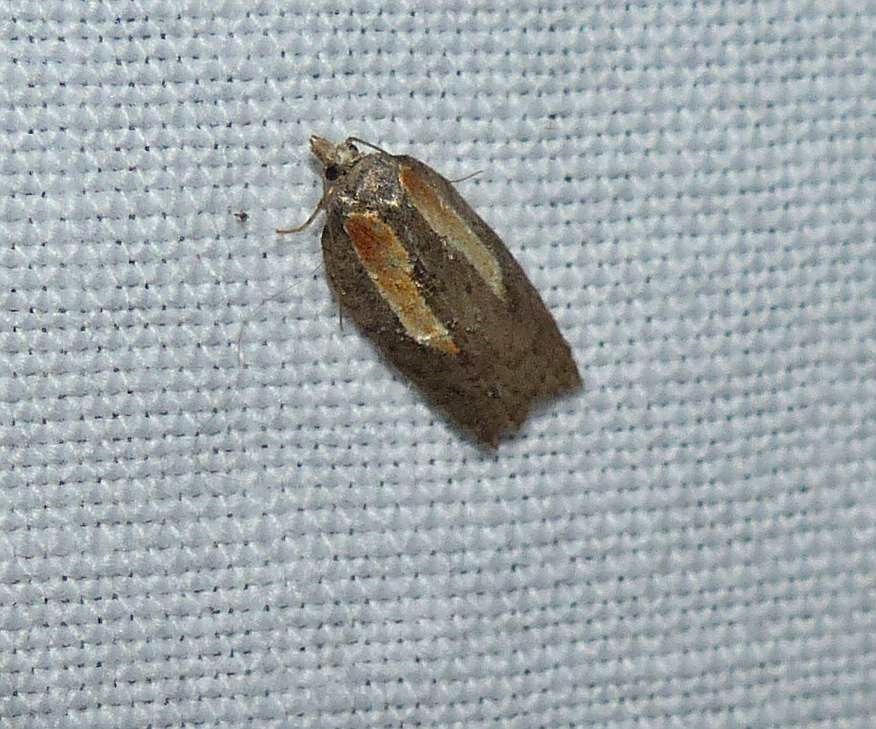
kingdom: Animalia
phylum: Arthropoda
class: Insecta
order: Lepidoptera
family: Tortricidae
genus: Acleris
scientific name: Acleris youngana
